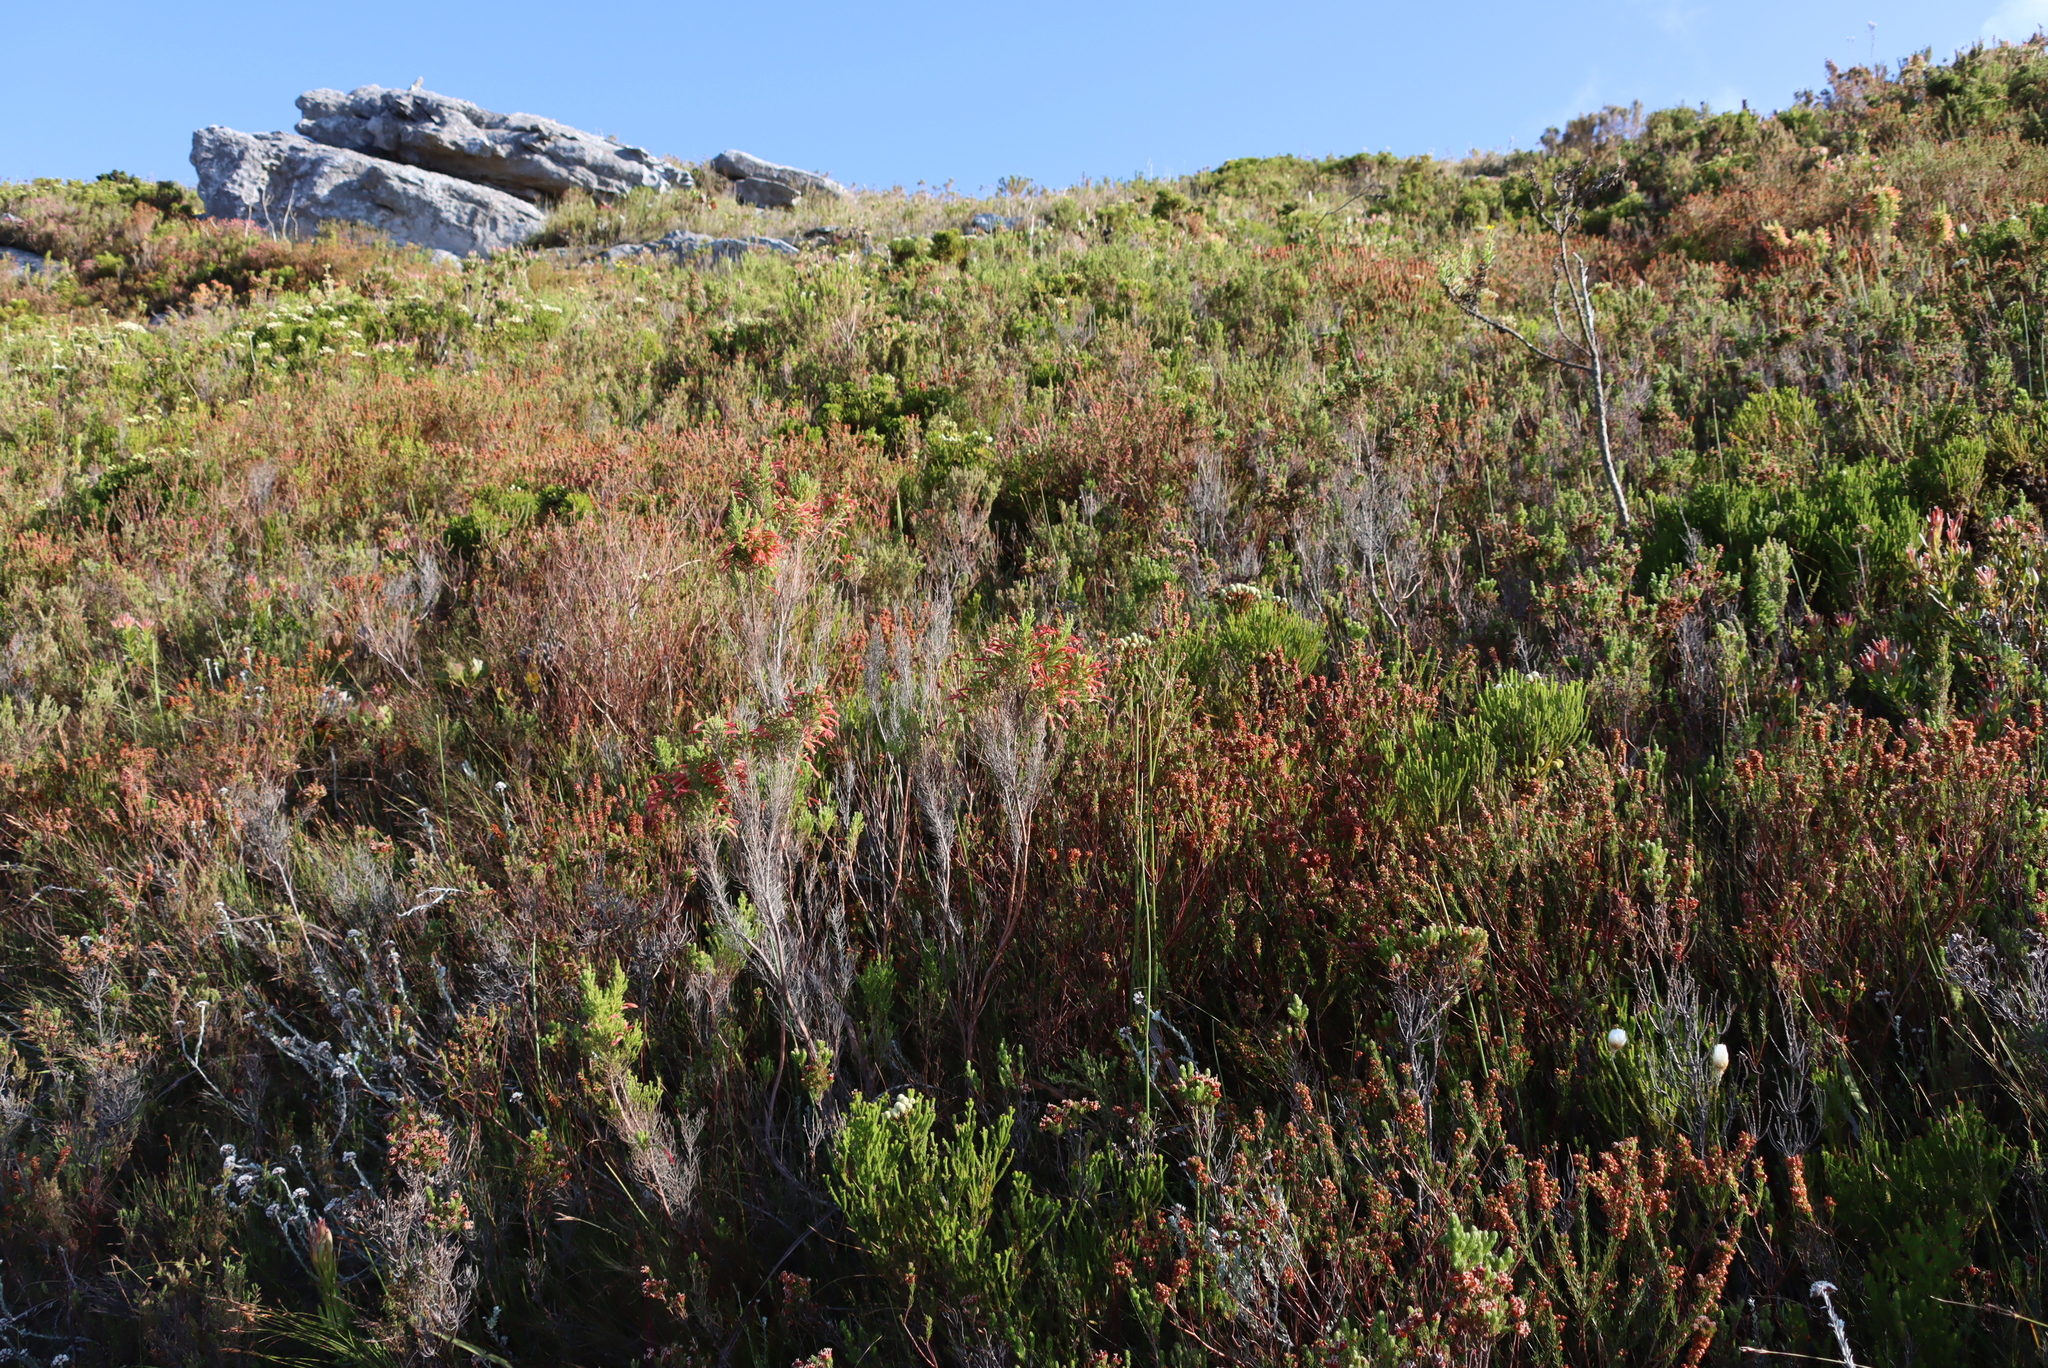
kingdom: Plantae
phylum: Tracheophyta
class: Magnoliopsida
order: Ericales
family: Ericaceae
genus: Erica
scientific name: Erica curviflora
